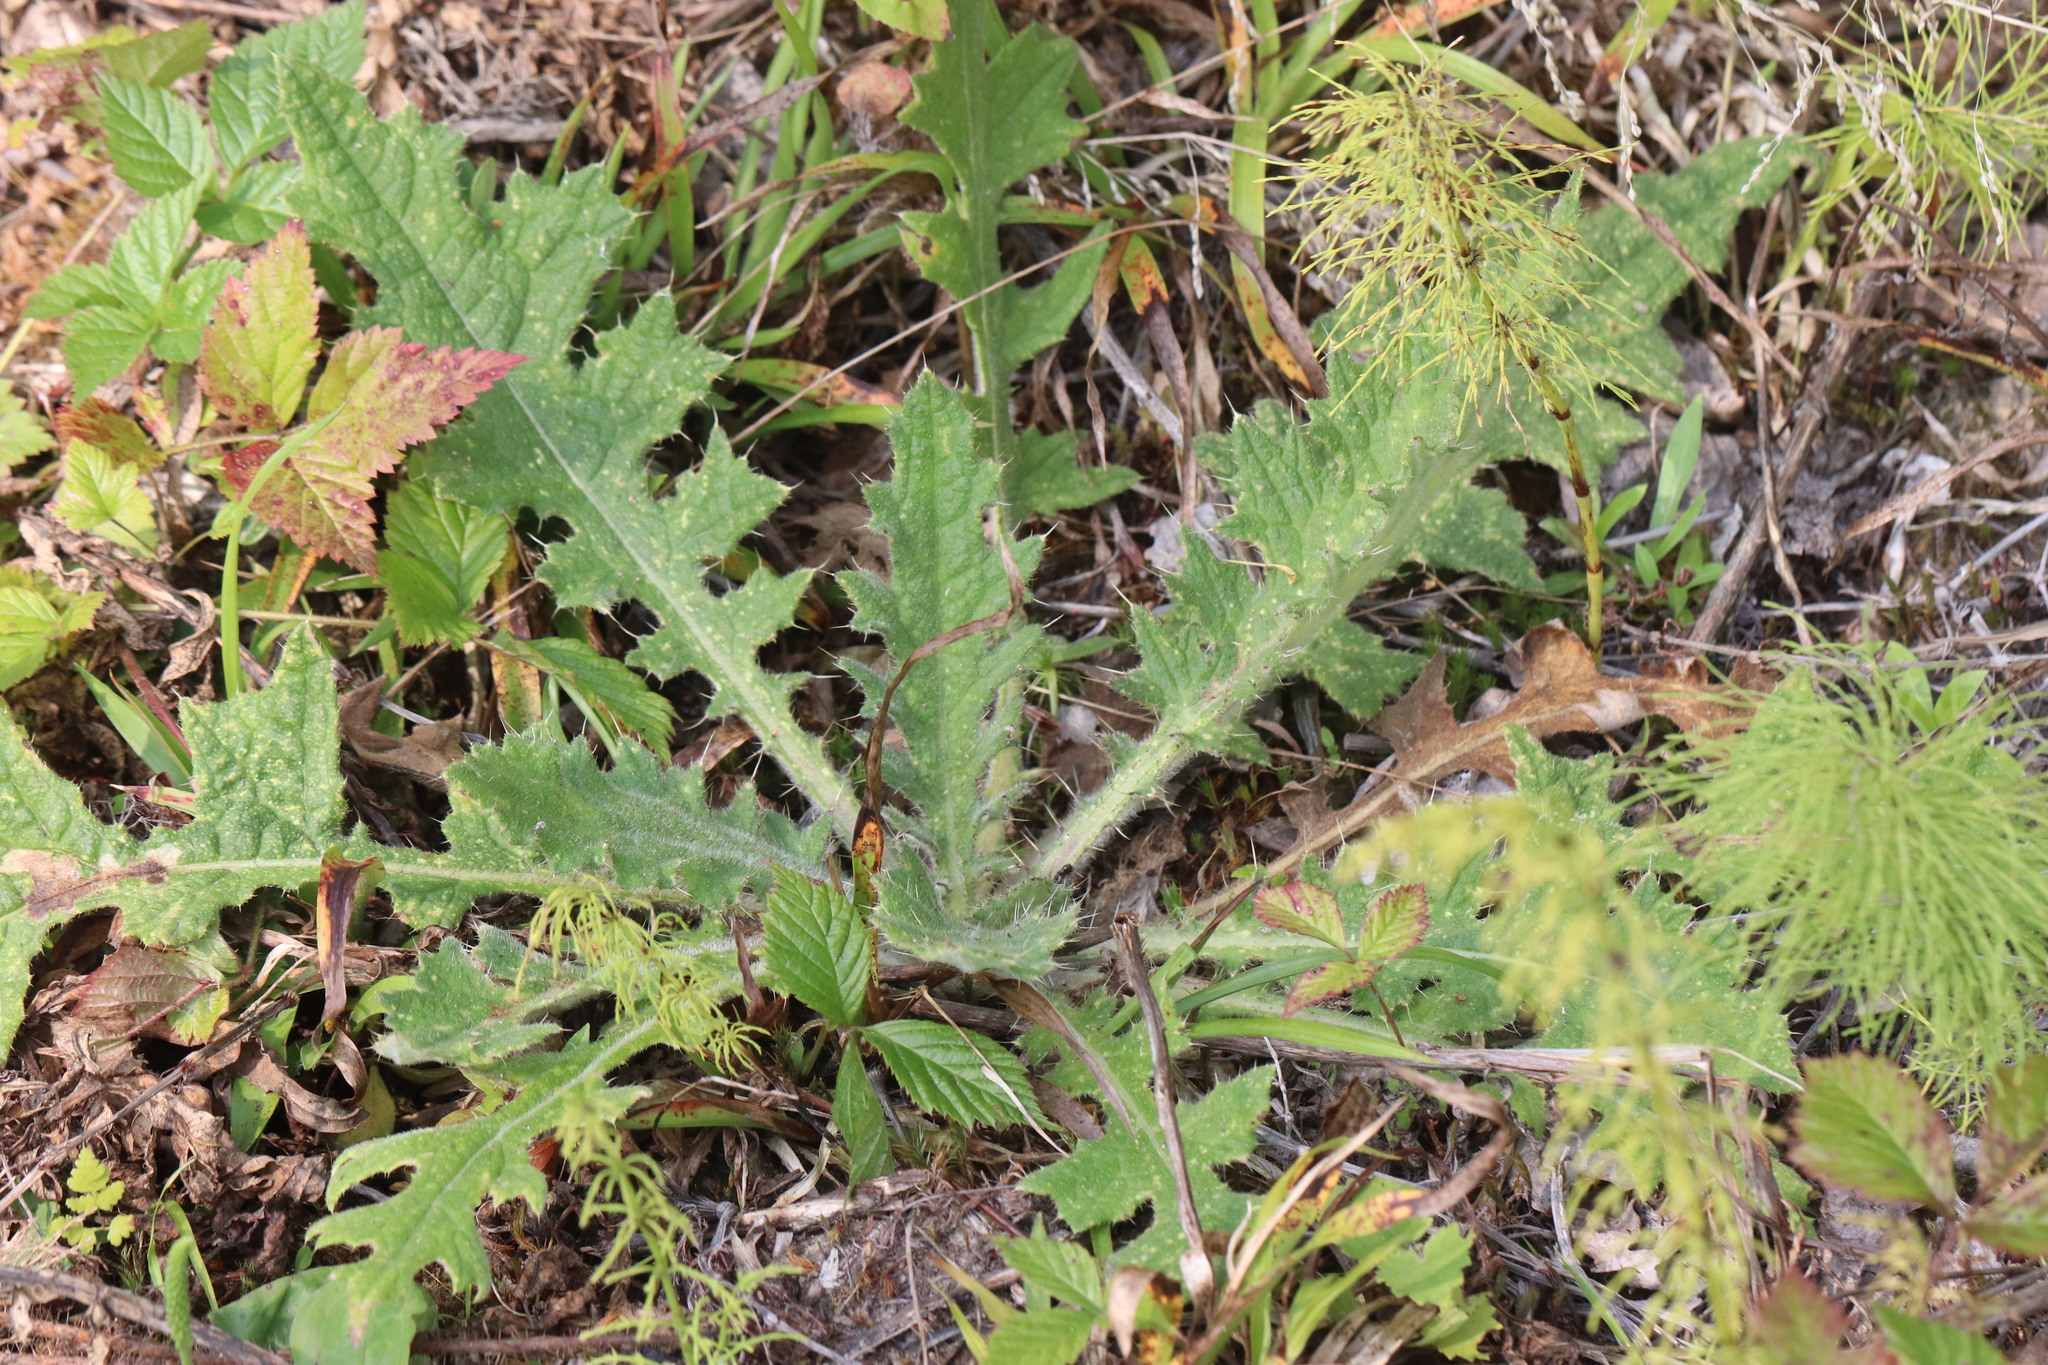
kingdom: Plantae
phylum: Tracheophyta
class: Magnoliopsida
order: Asterales
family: Asteraceae
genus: Cirsium
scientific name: Cirsium vulgare
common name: Bull thistle
